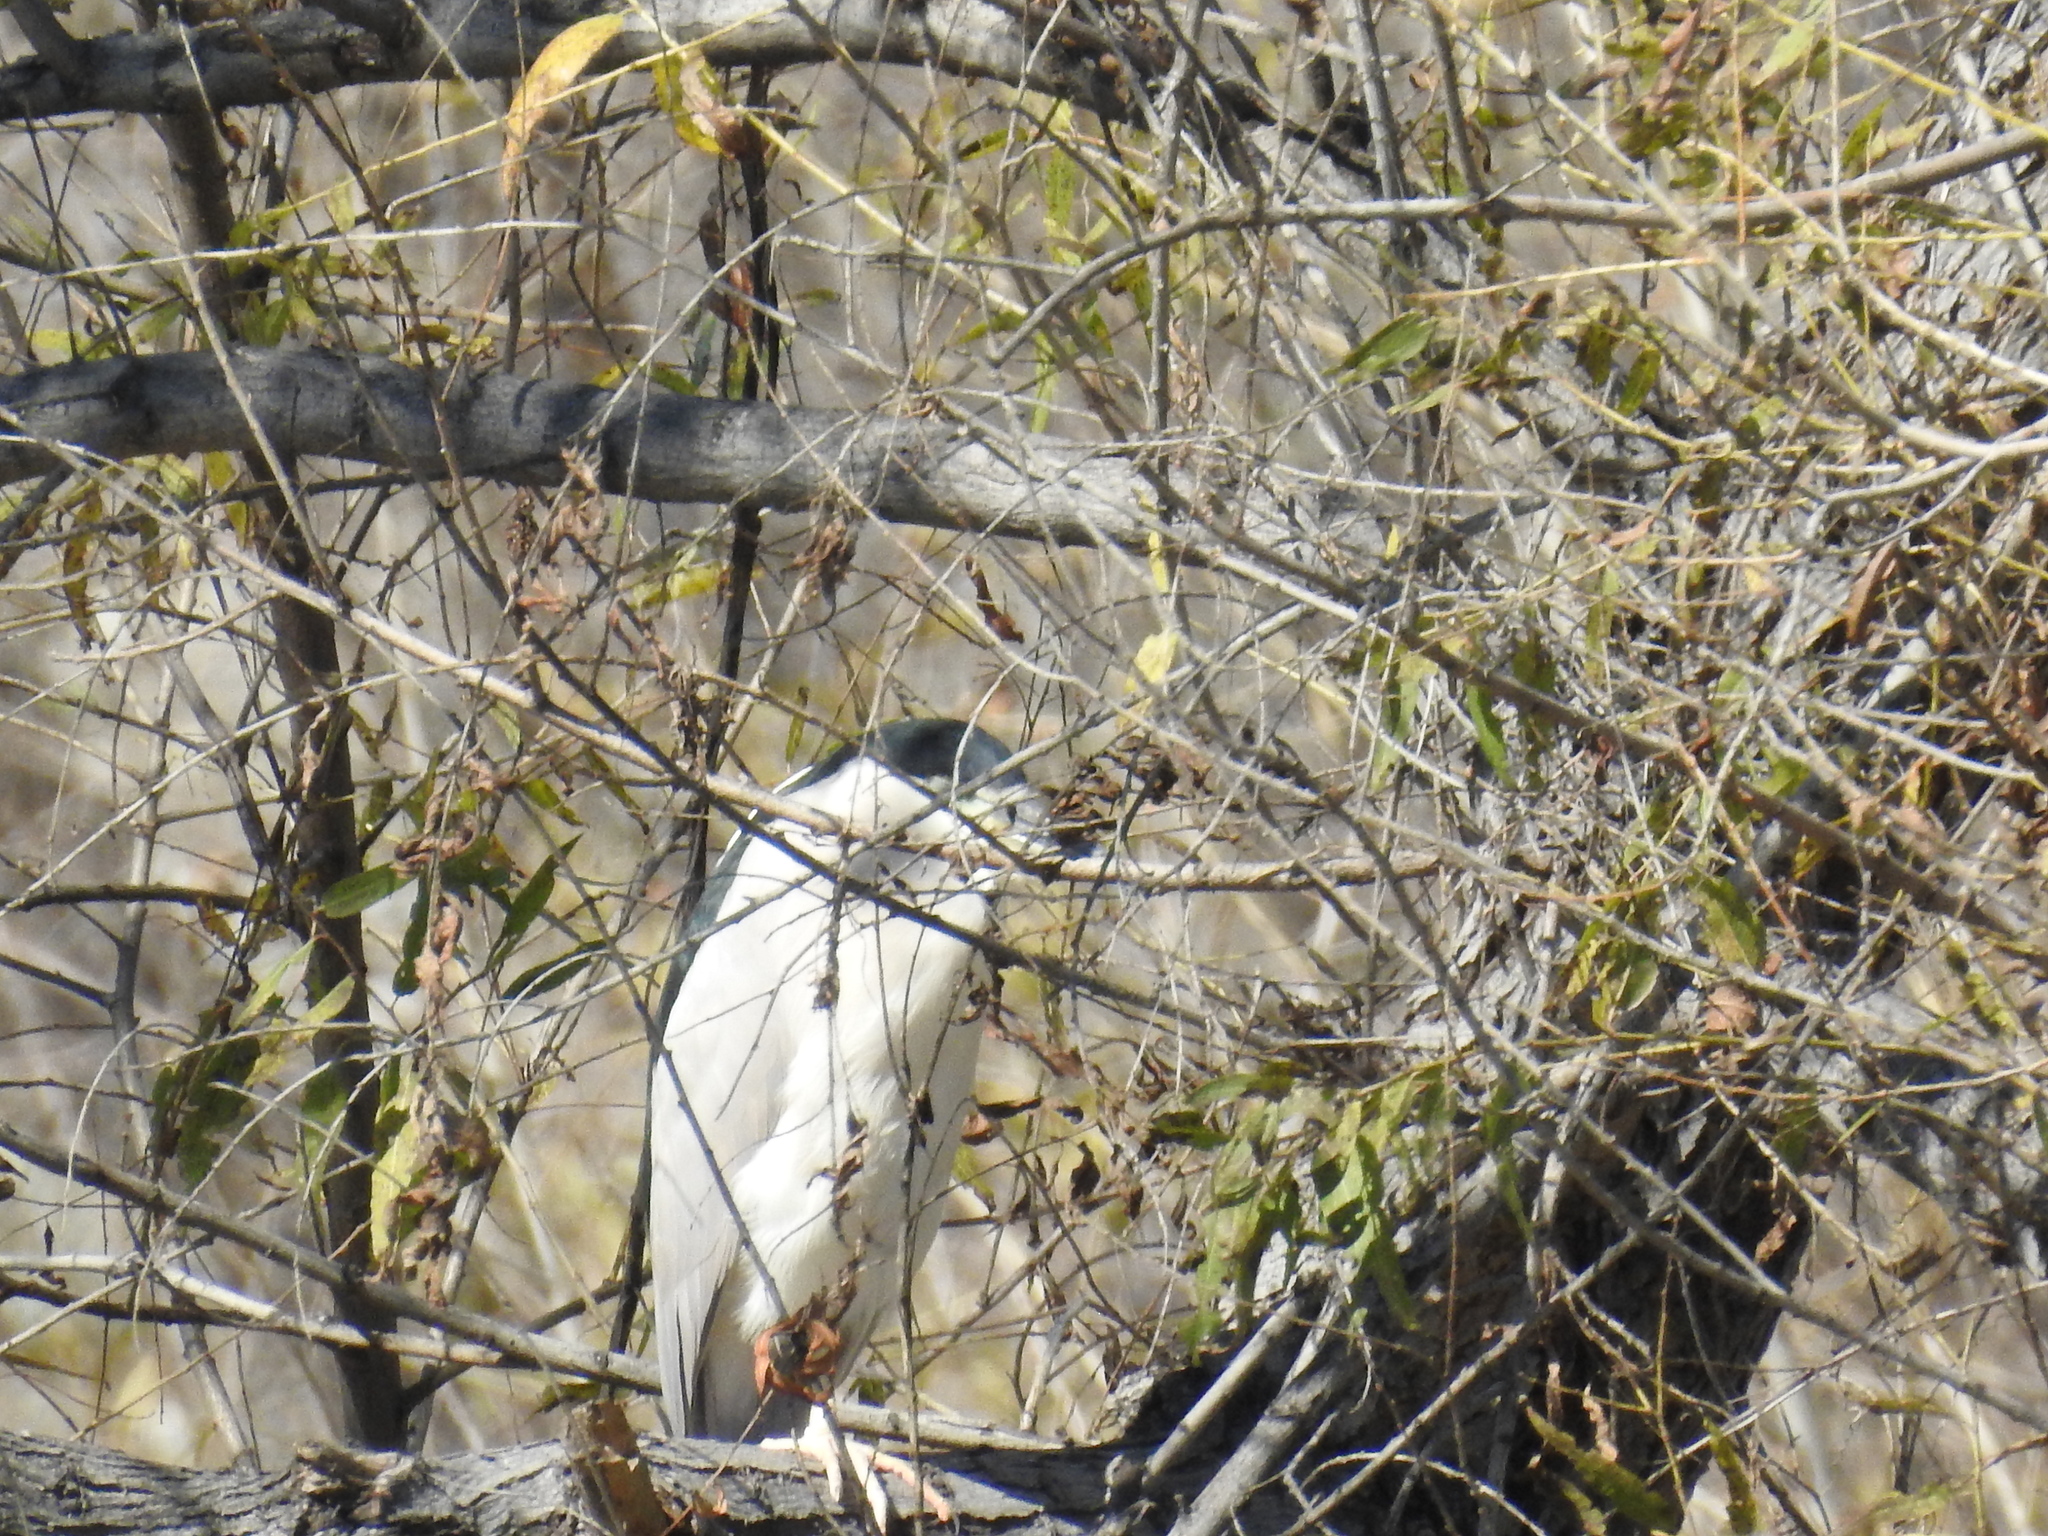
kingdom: Animalia
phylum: Chordata
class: Aves
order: Pelecaniformes
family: Ardeidae
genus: Nycticorax
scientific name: Nycticorax nycticorax
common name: Black-crowned night heron
